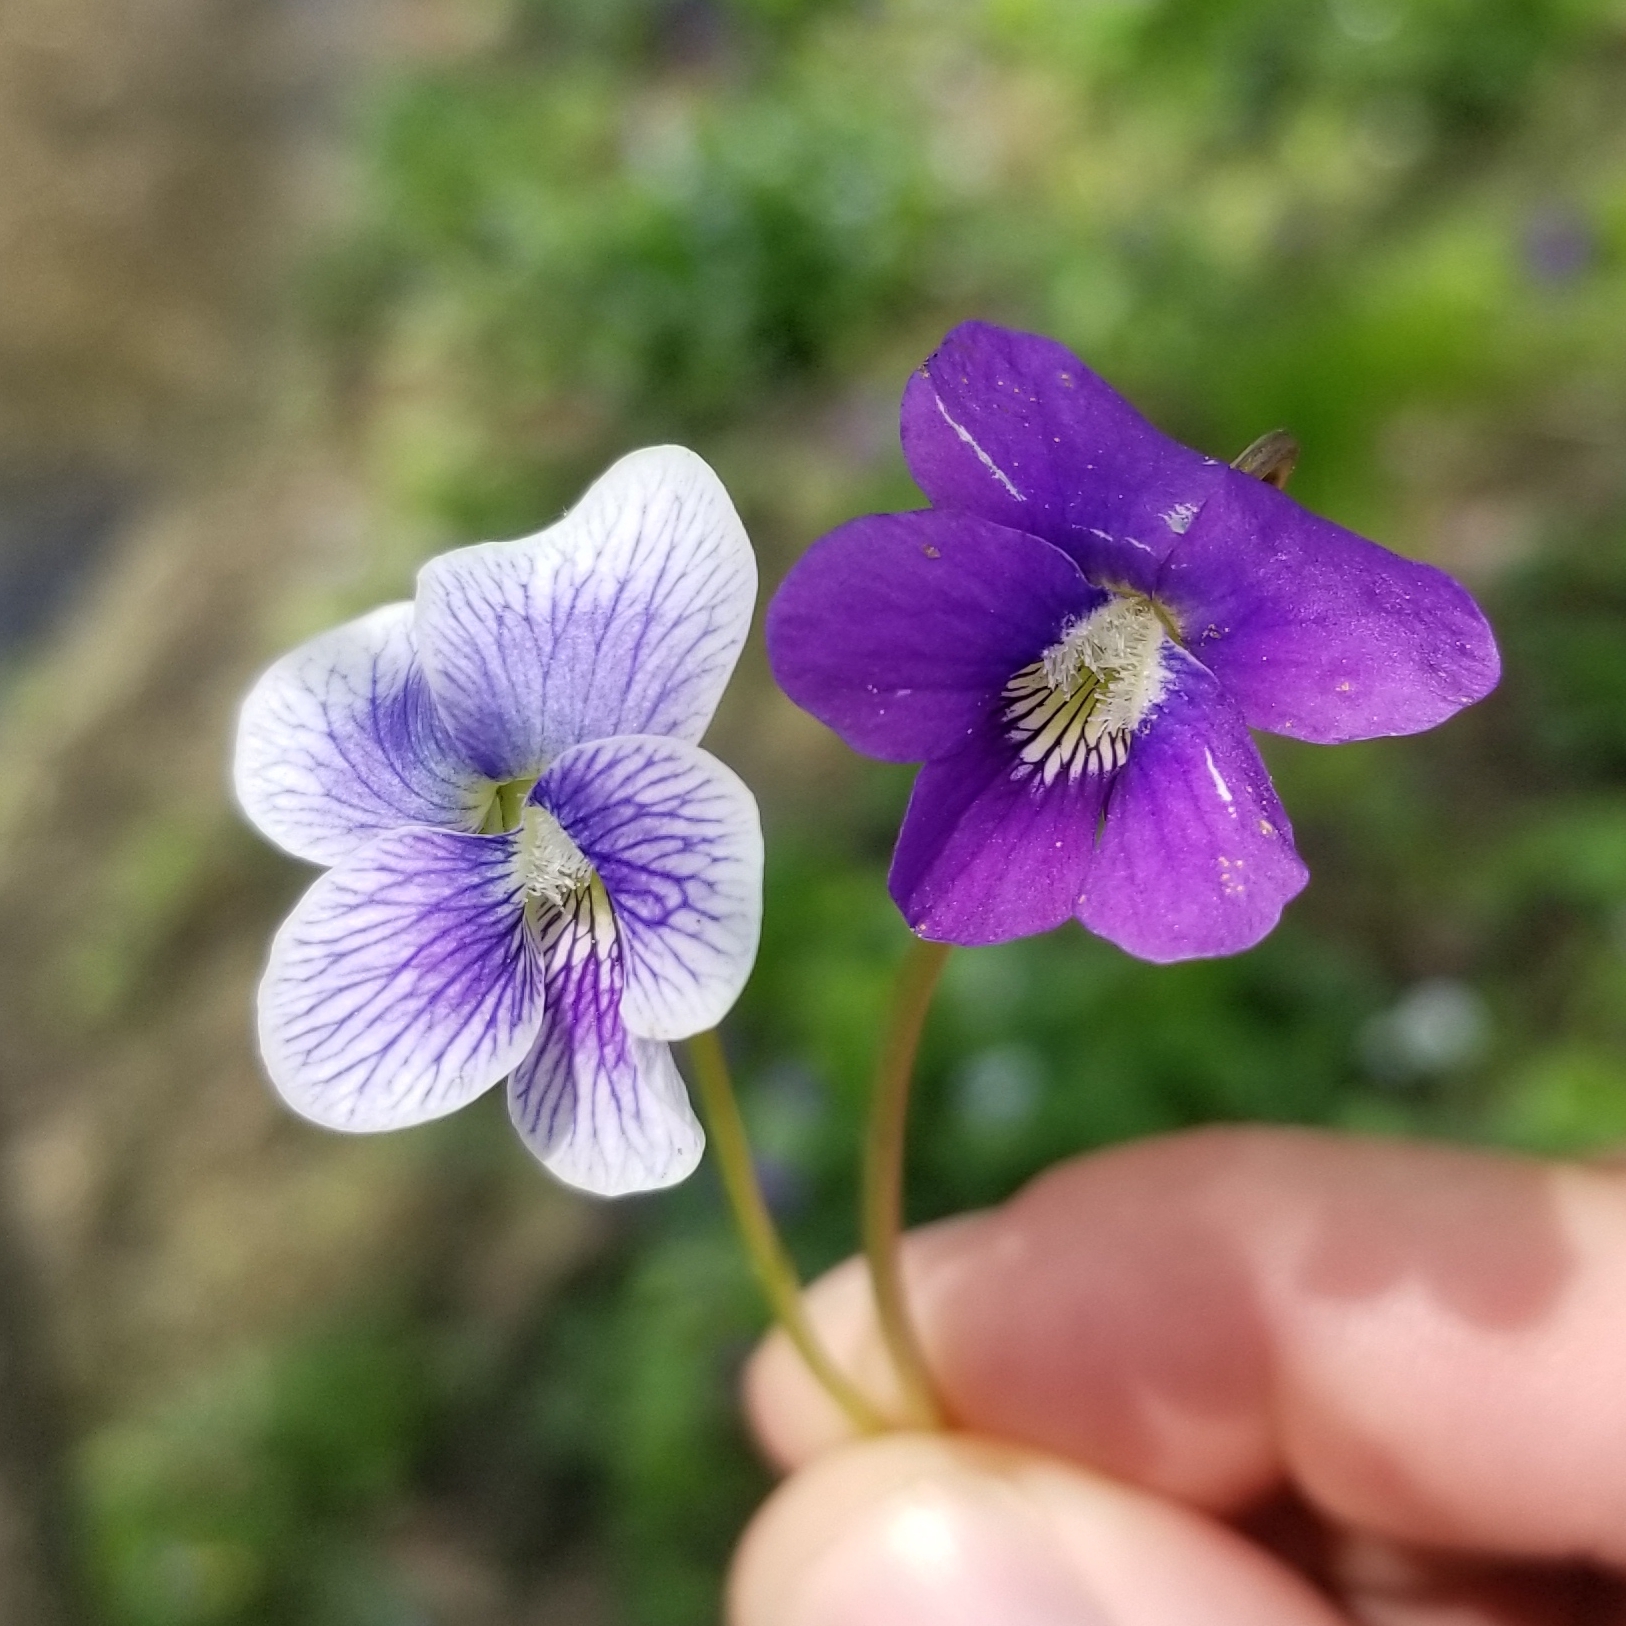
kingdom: Plantae
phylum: Tracheophyta
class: Magnoliopsida
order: Malpighiales
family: Violaceae
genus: Viola
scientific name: Viola sororia
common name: Dooryard violet
